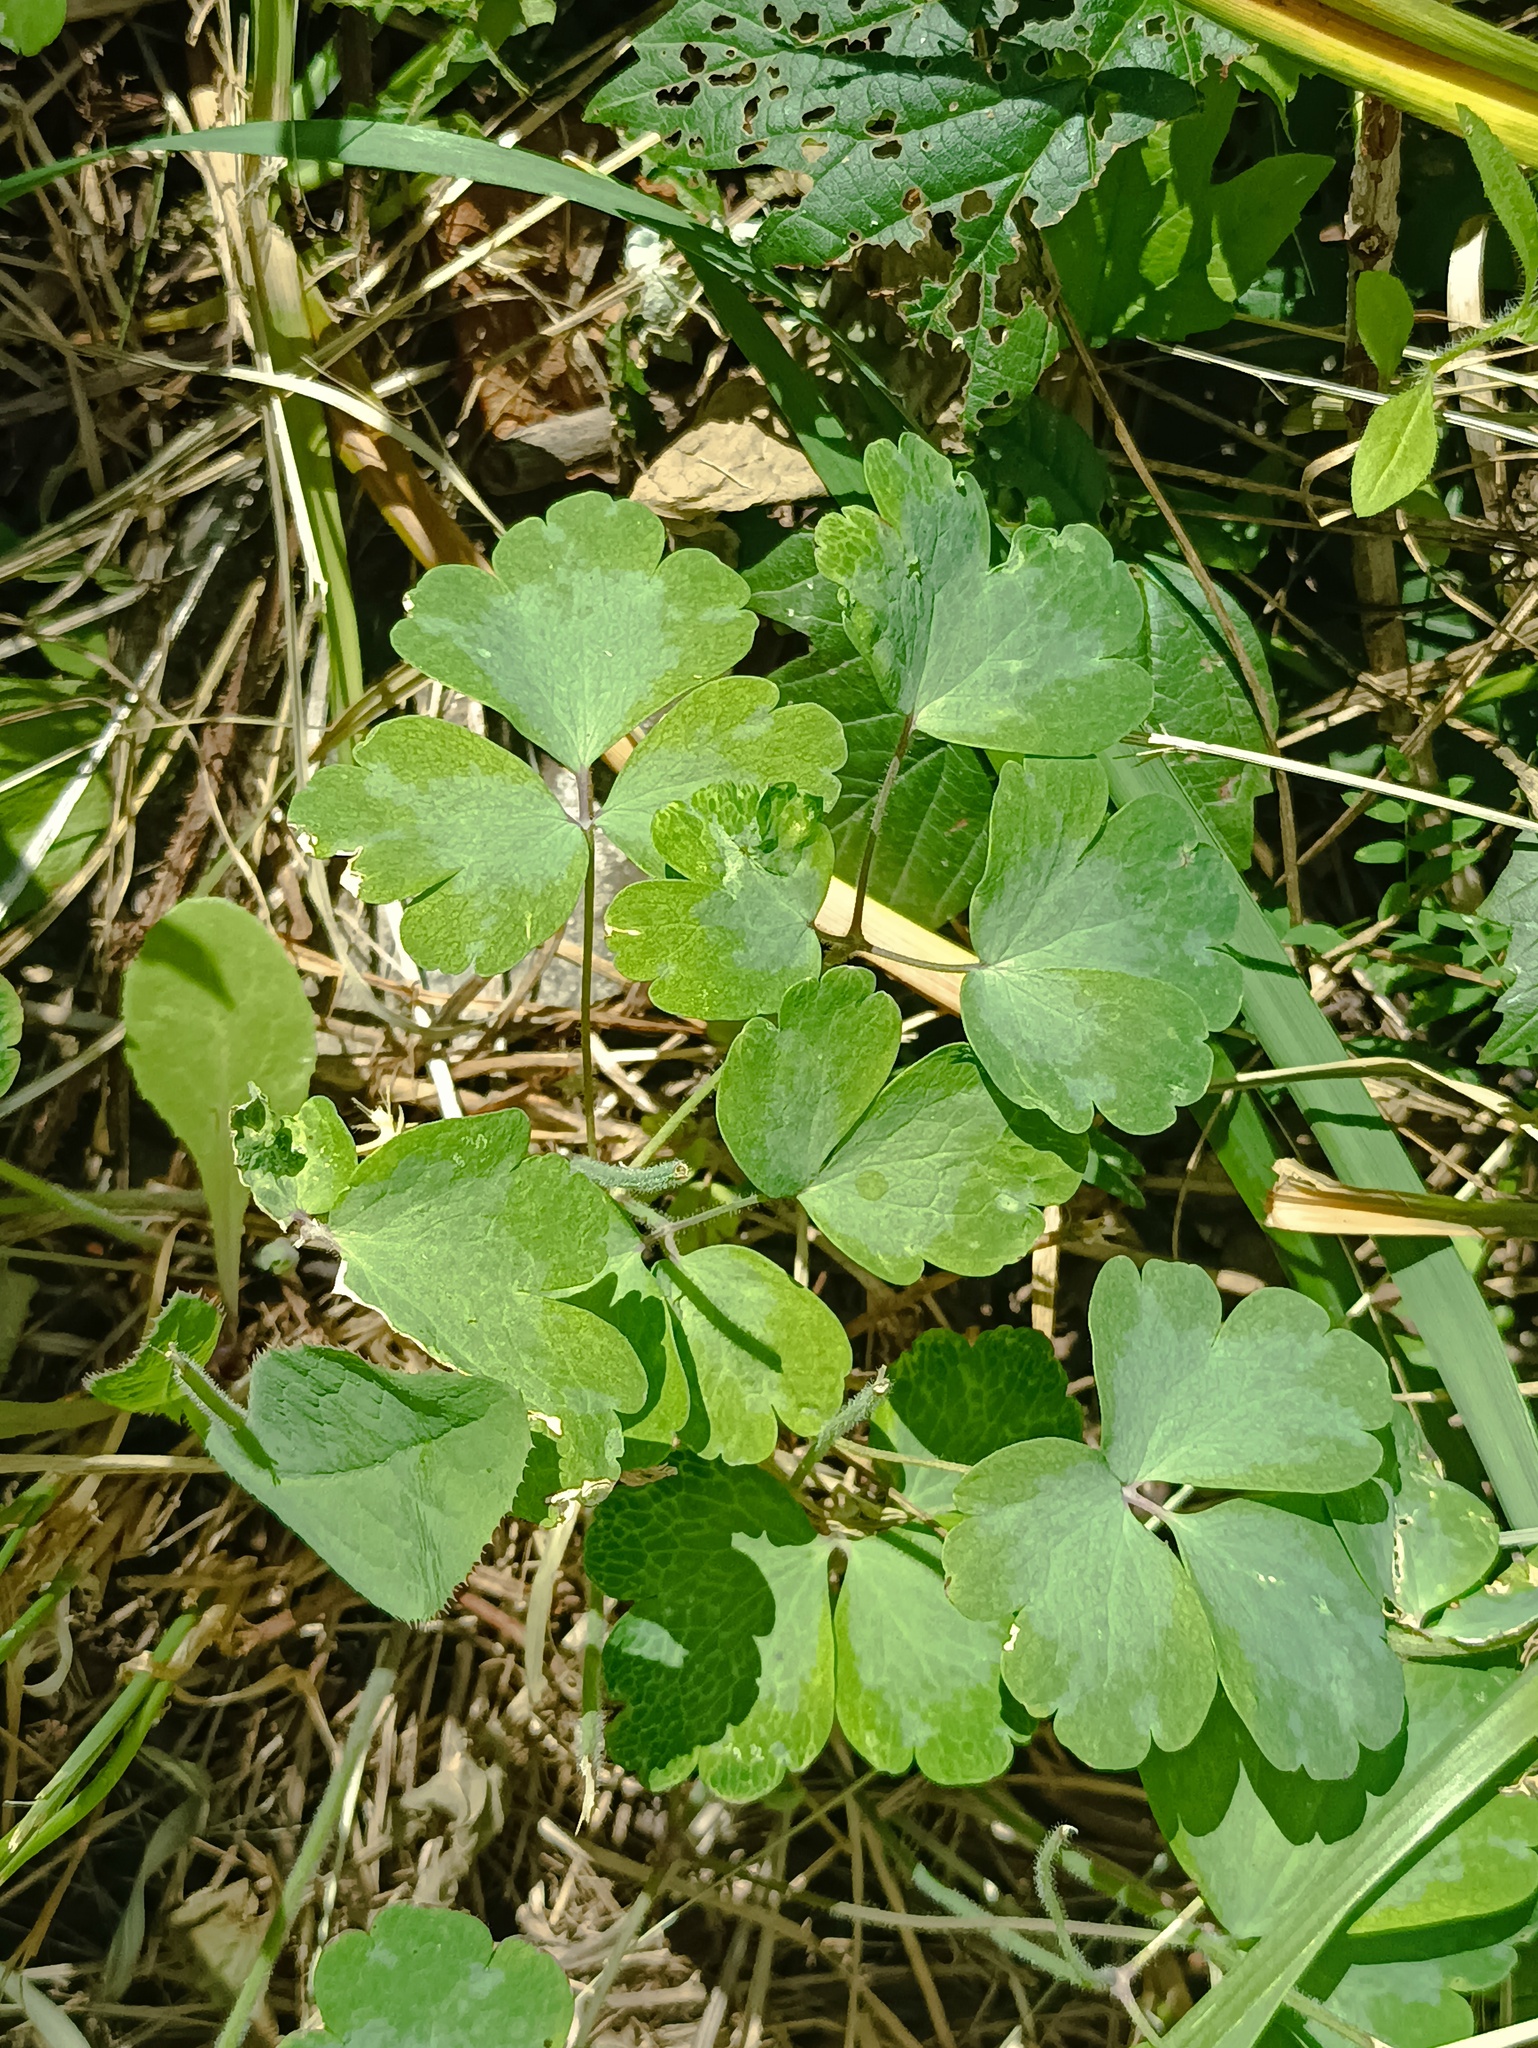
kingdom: Plantae
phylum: Tracheophyta
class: Magnoliopsida
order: Ranunculales
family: Ranunculaceae
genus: Aquilegia
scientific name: Aquilegia vulgaris
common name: Columbine
